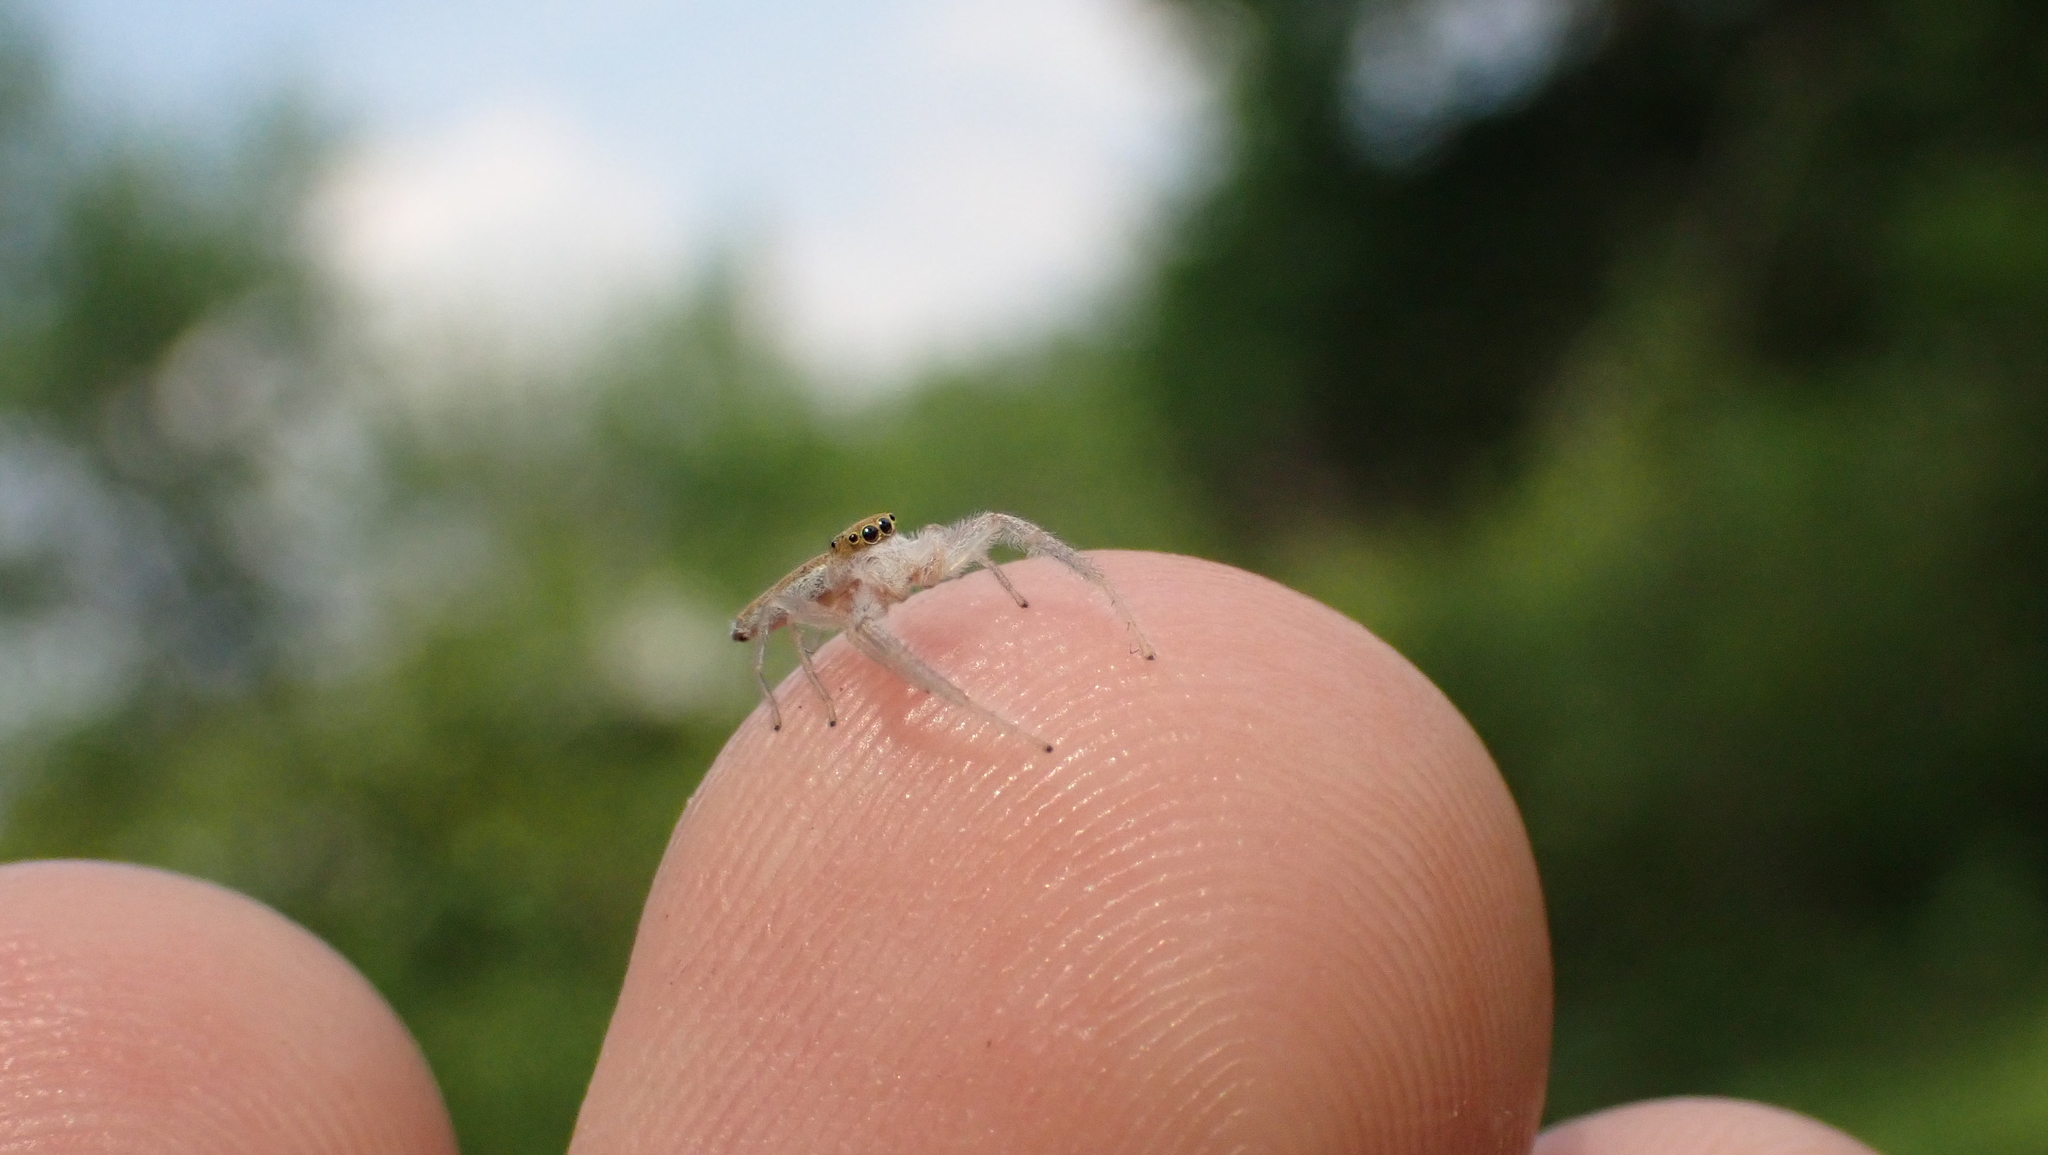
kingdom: Animalia
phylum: Arthropoda
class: Arachnida
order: Araneae
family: Salticidae
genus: Hentzia
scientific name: Hentzia mitrata
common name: White-jawed jumping spider
